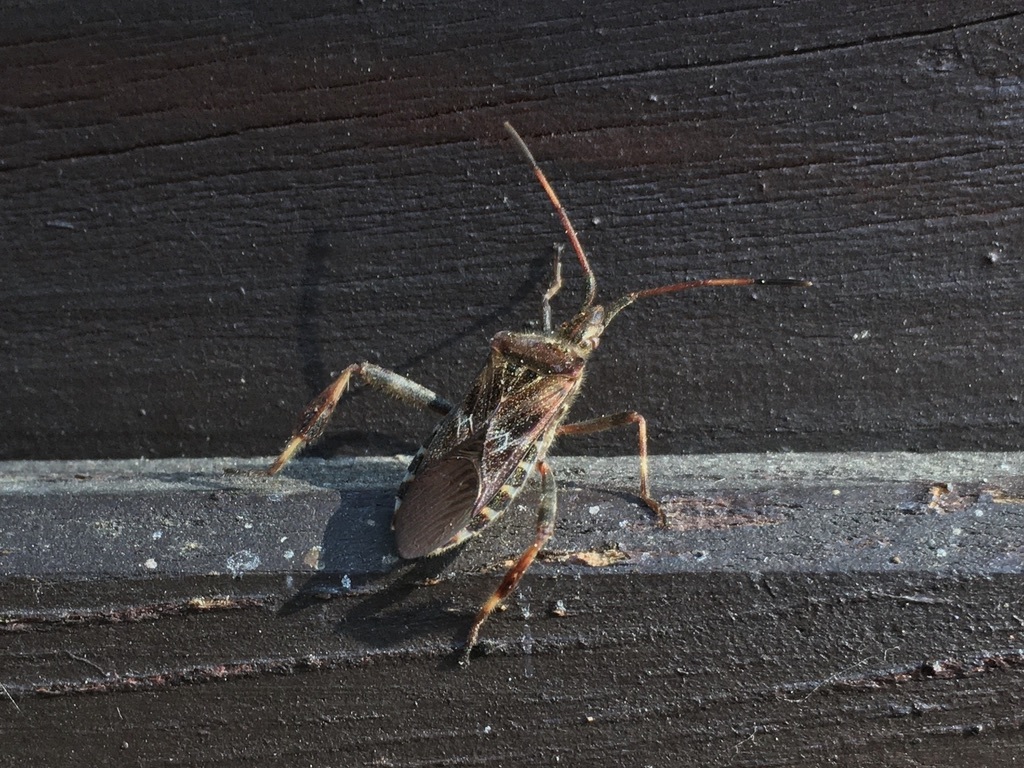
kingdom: Animalia
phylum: Arthropoda
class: Insecta
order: Hemiptera
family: Coreidae
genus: Leptoglossus
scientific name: Leptoglossus occidentalis
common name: Western conifer-seed bug
